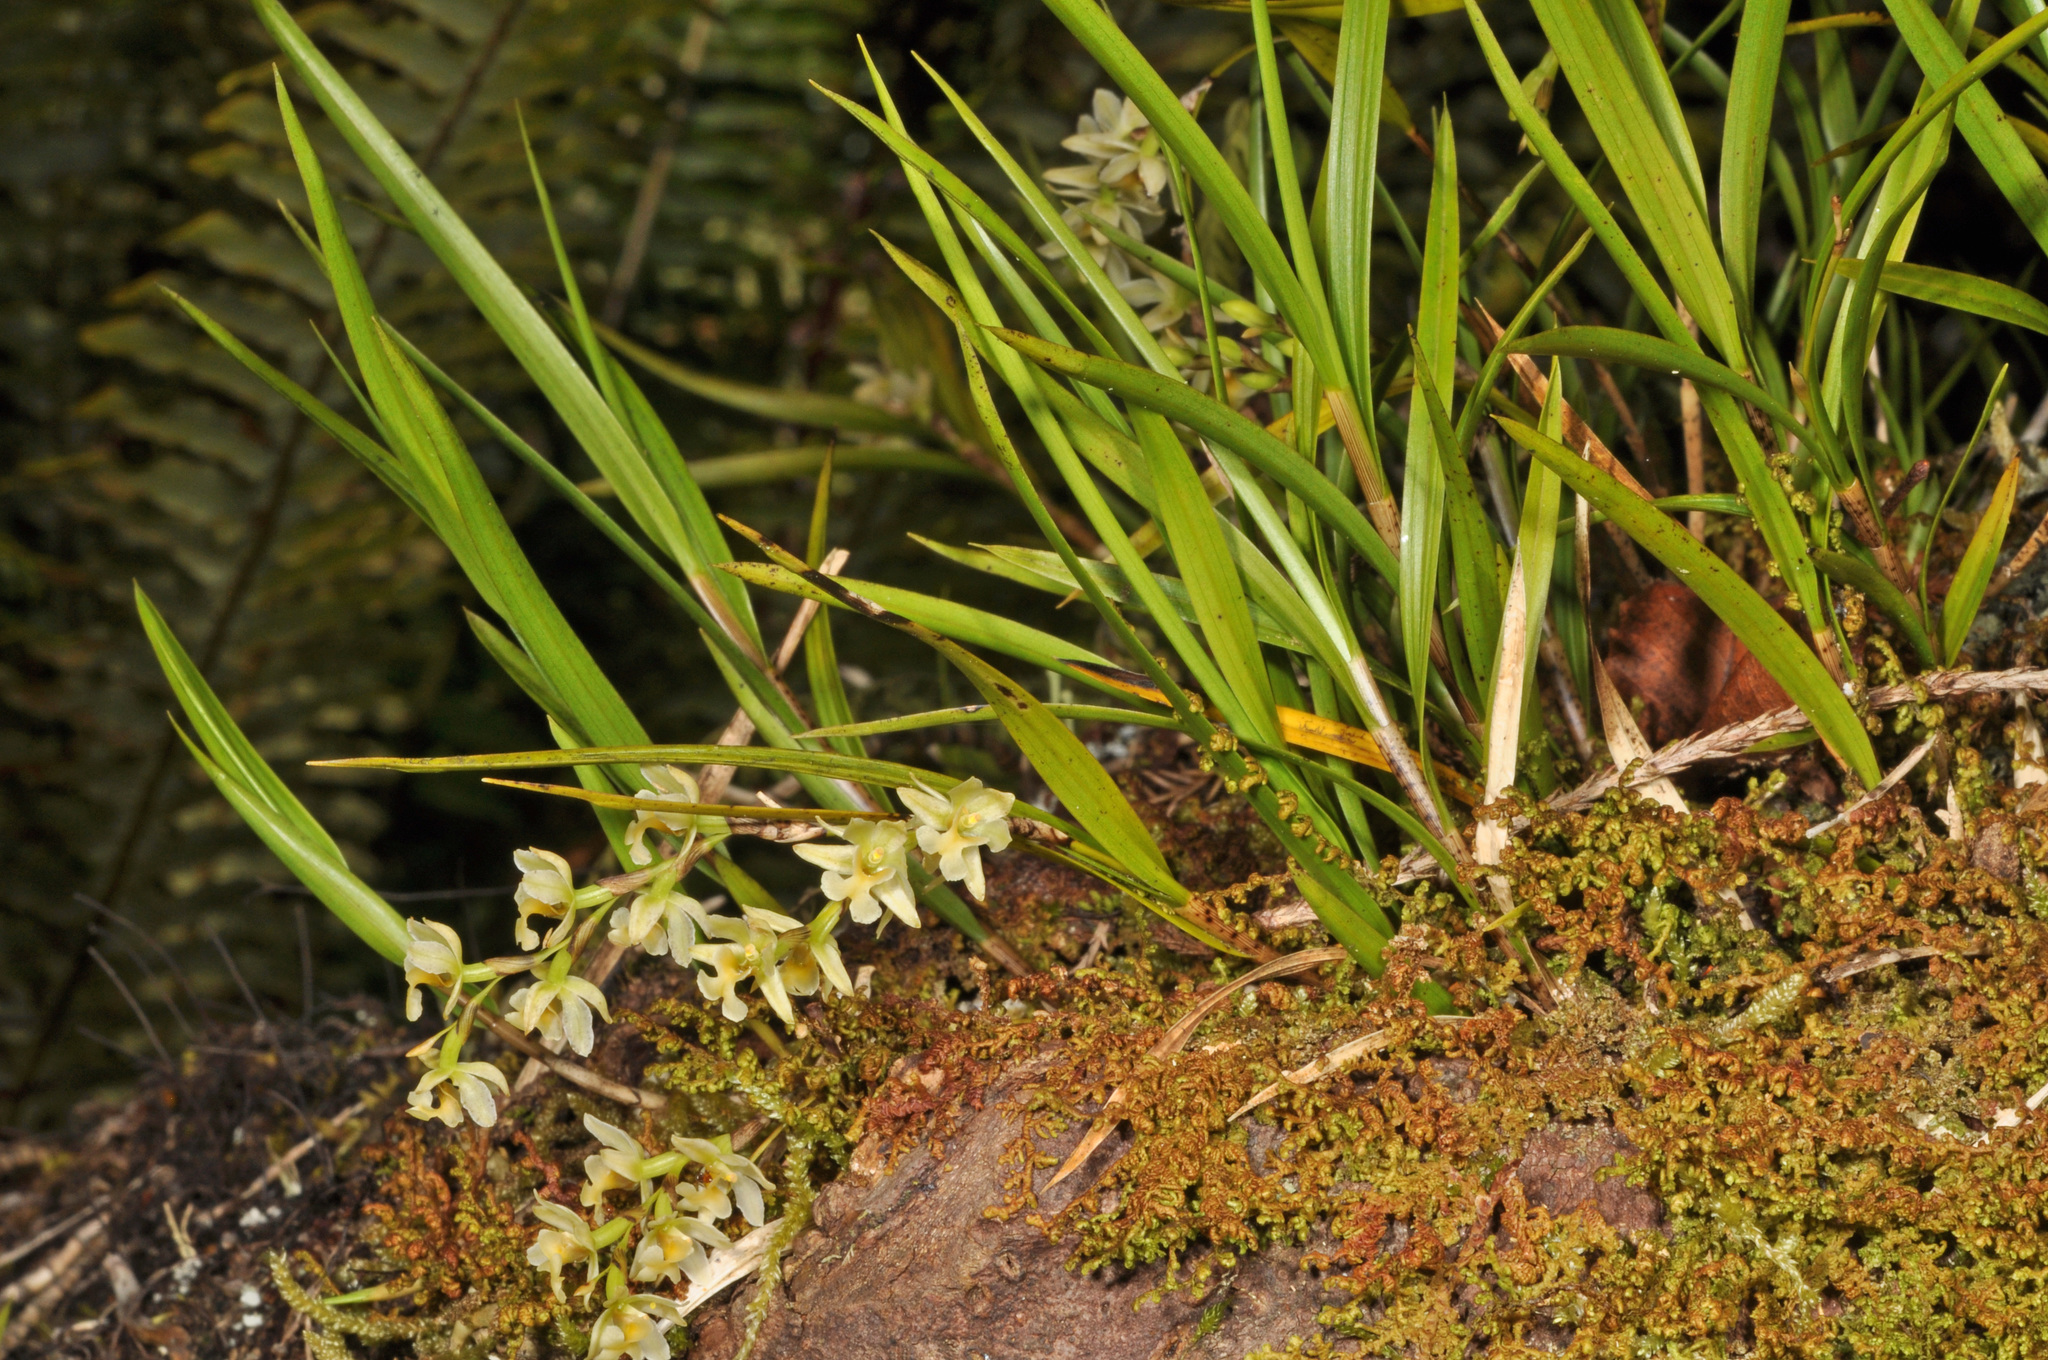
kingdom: Plantae
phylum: Tracheophyta
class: Liliopsida
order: Asparagales
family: Orchidaceae
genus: Earina
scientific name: Earina mucronata
